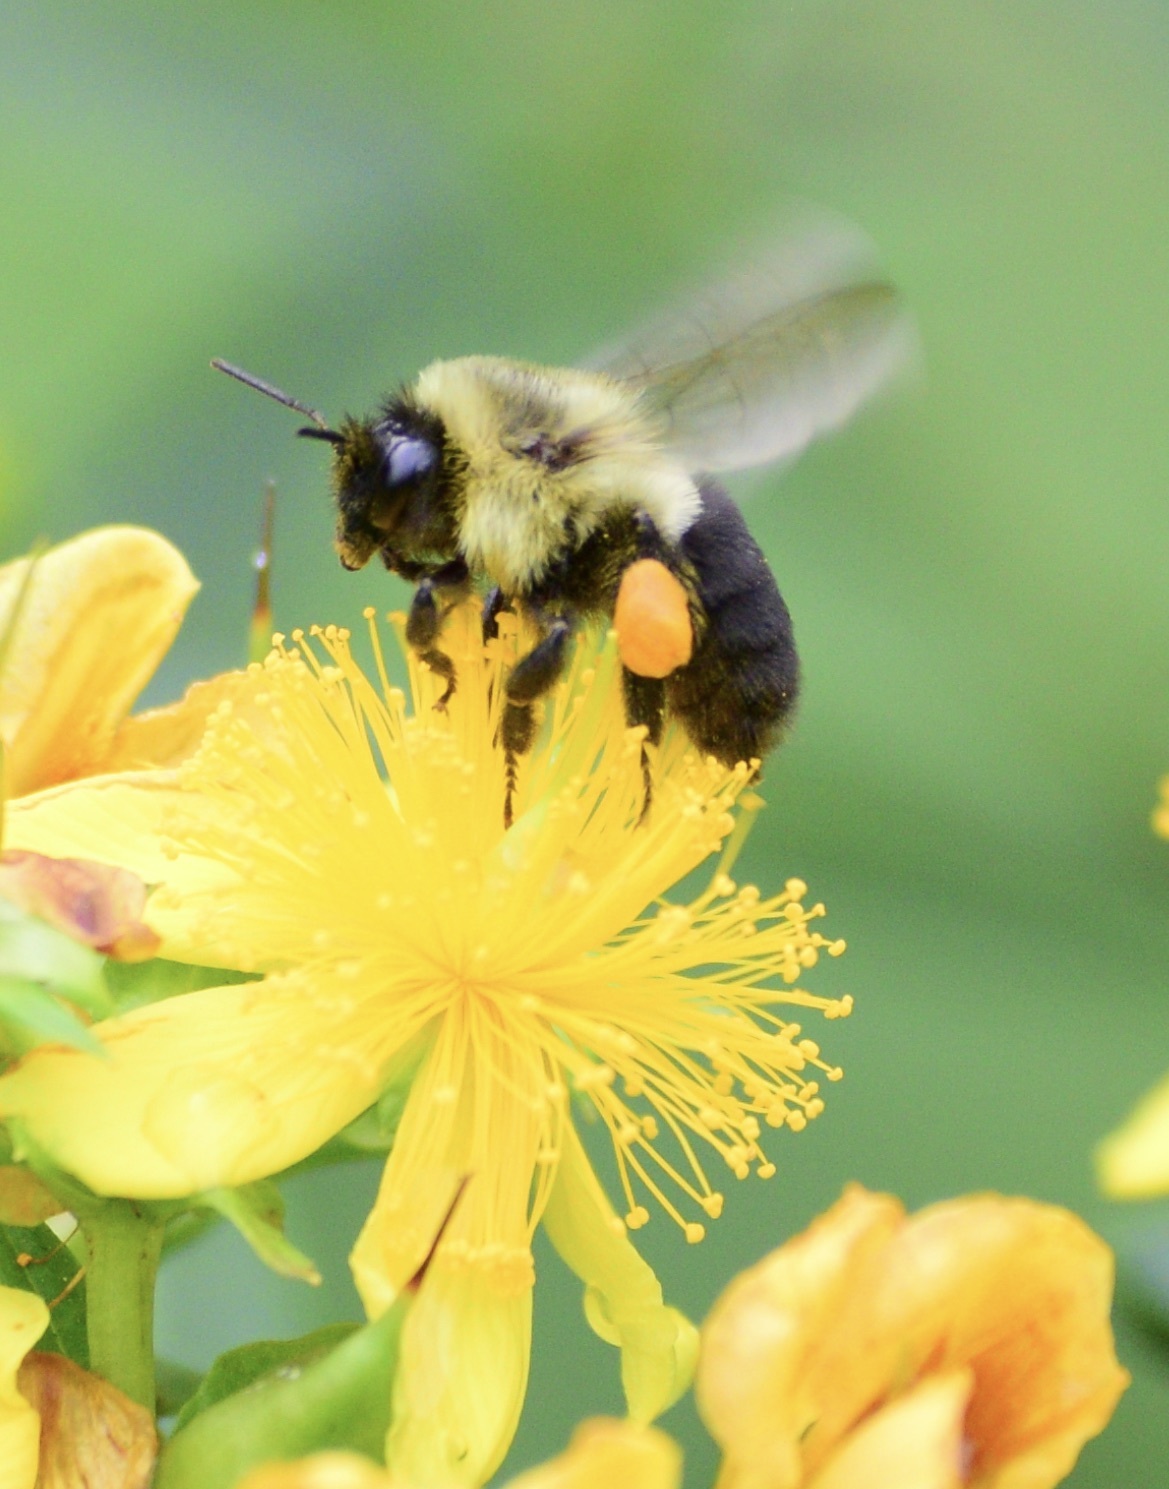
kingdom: Animalia
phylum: Arthropoda
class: Insecta
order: Hymenoptera
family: Apidae
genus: Bombus
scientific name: Bombus impatiens
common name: Common eastern bumble bee
